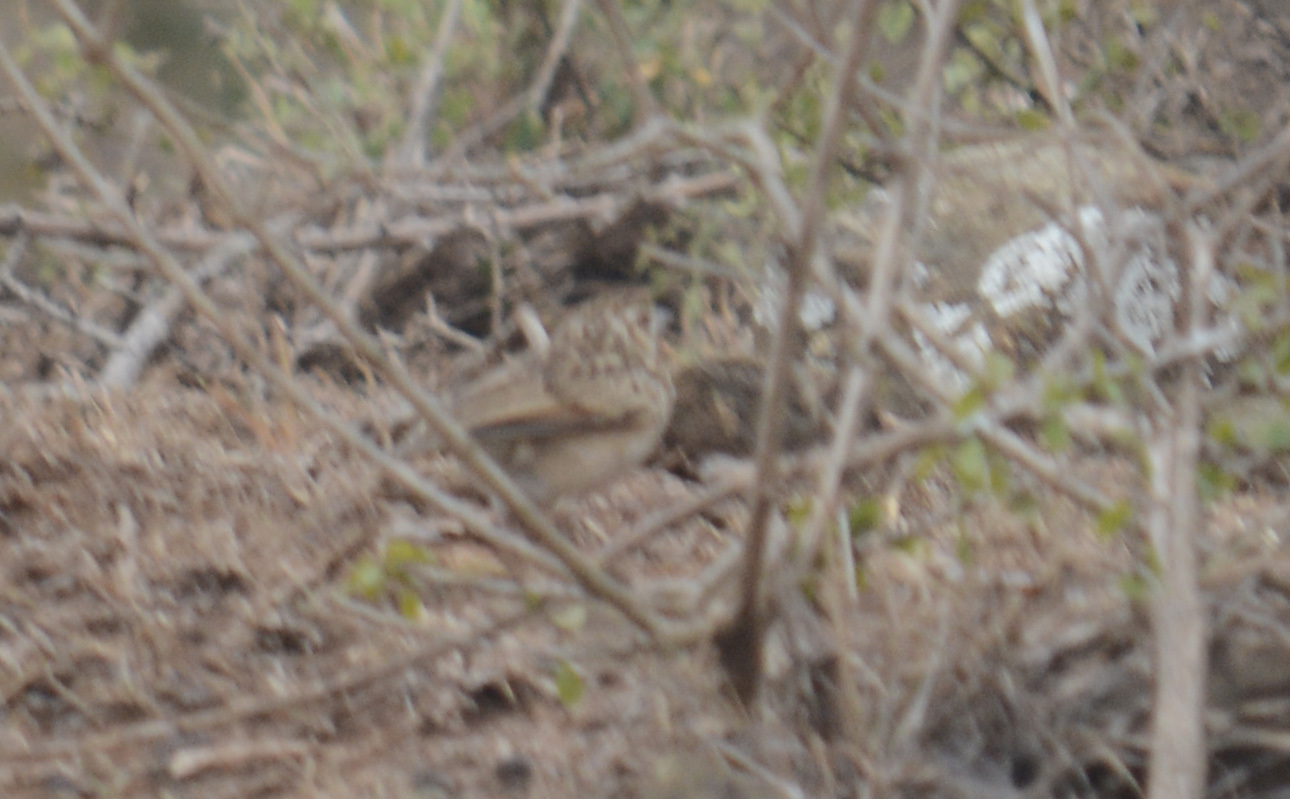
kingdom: Animalia
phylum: Chordata
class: Aves
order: Passeriformes
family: Alaudidae
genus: Mirafra
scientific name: Mirafra affinis
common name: Jerdon's bushlark
